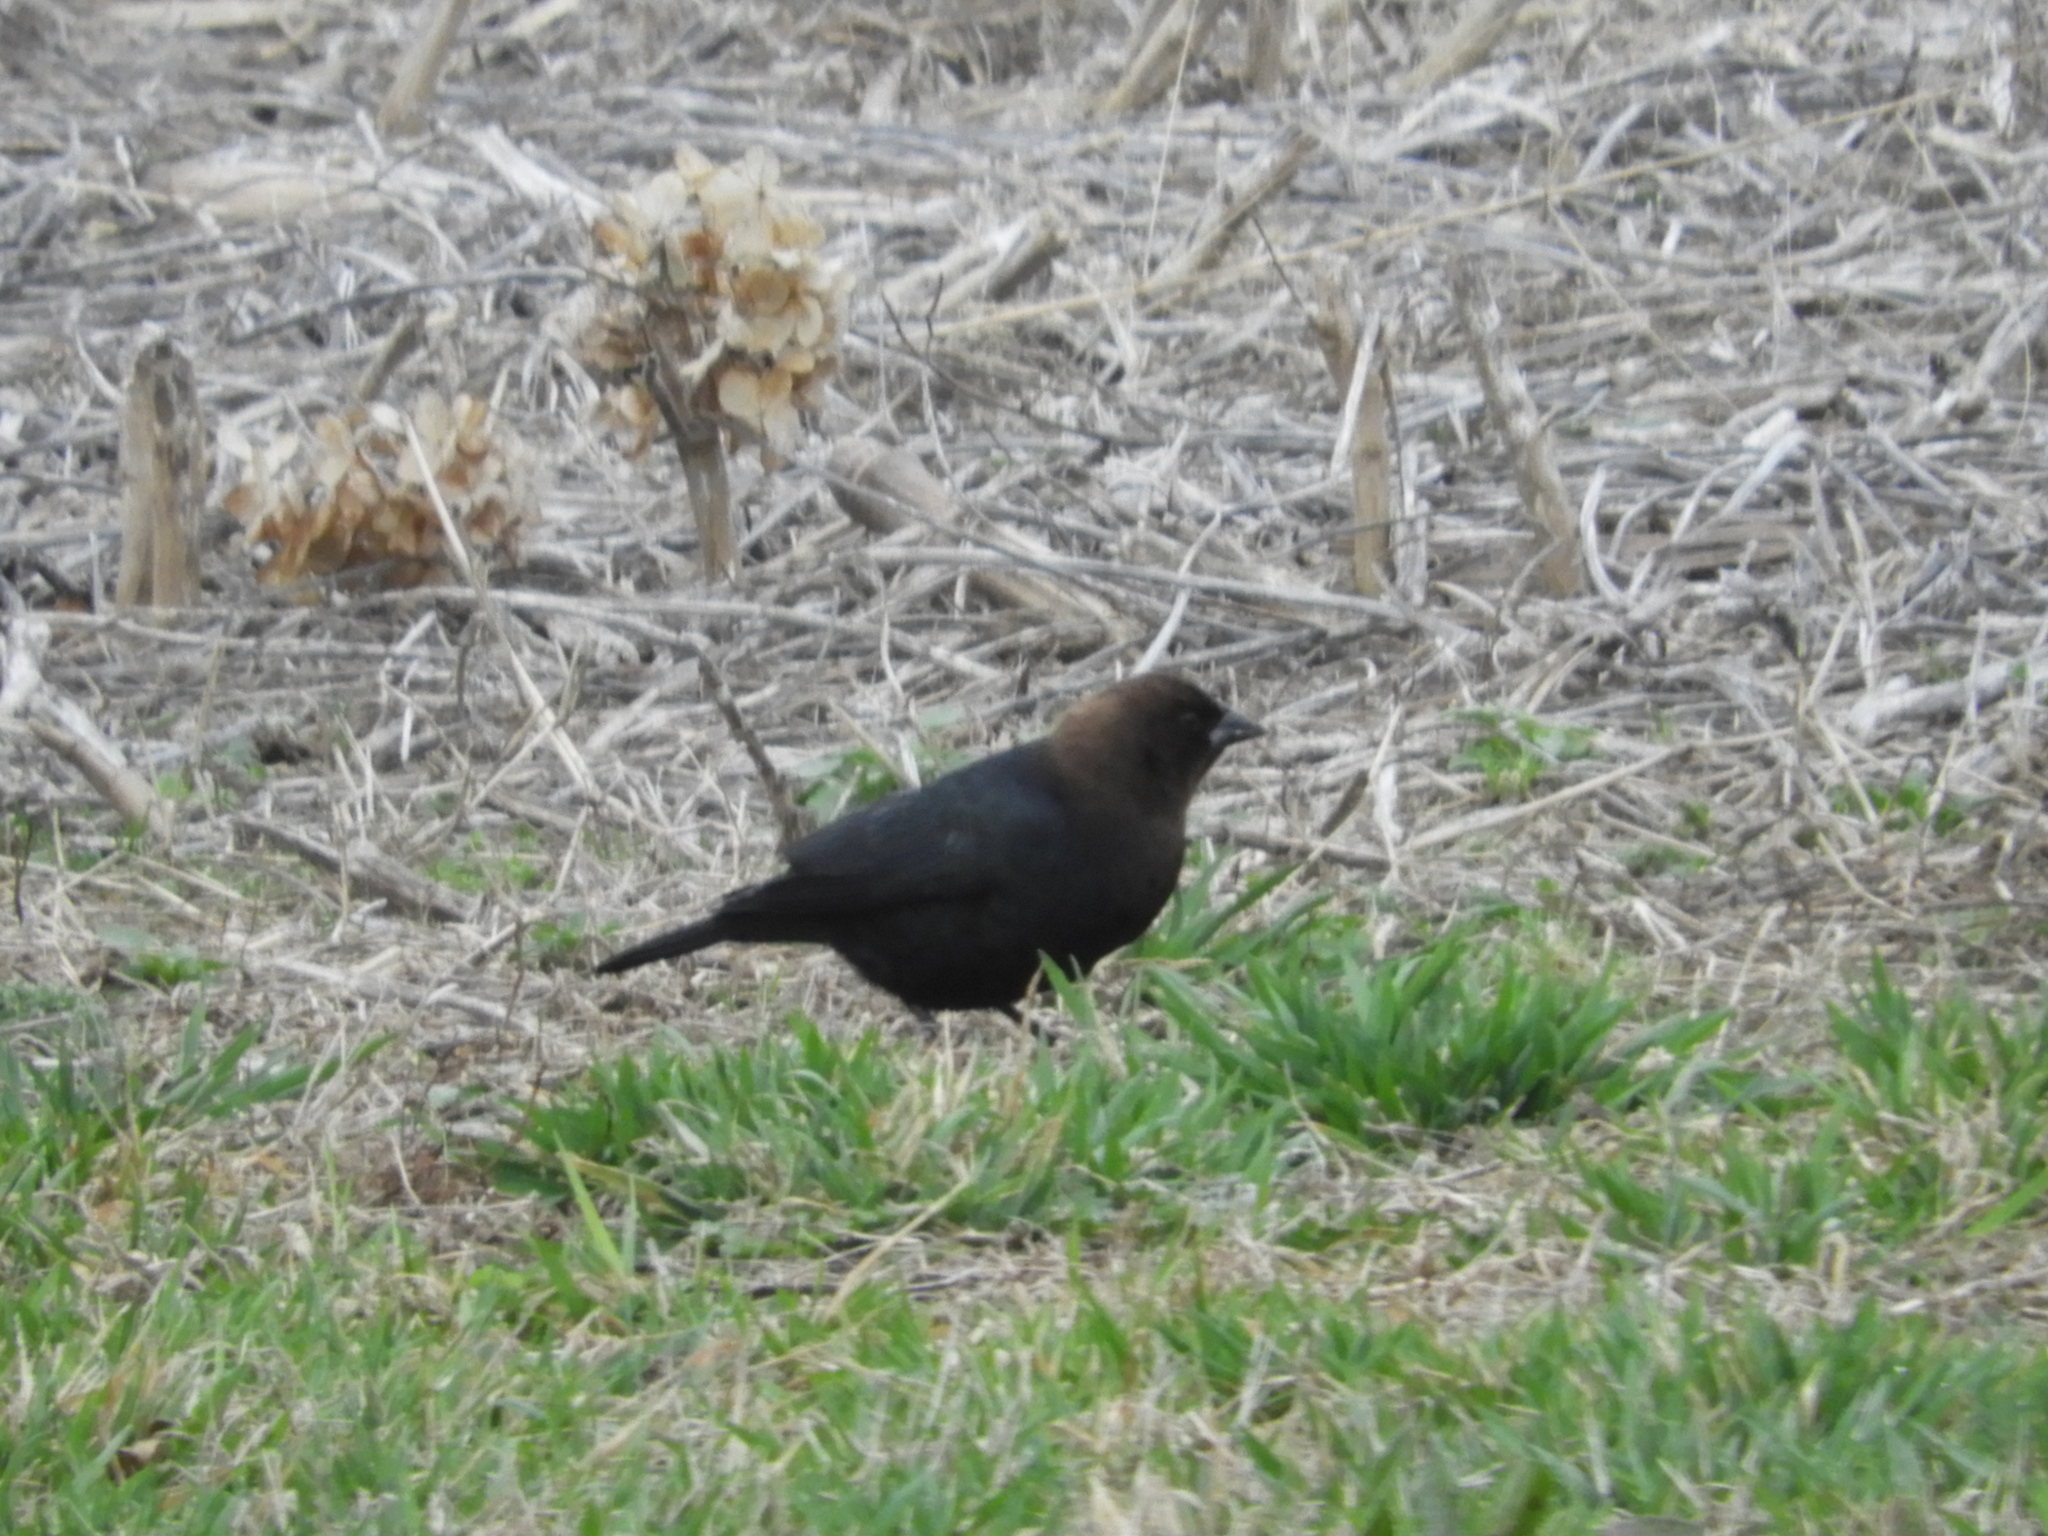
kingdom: Animalia
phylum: Chordata
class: Aves
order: Passeriformes
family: Icteridae
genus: Molothrus
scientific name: Molothrus ater
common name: Brown-headed cowbird
